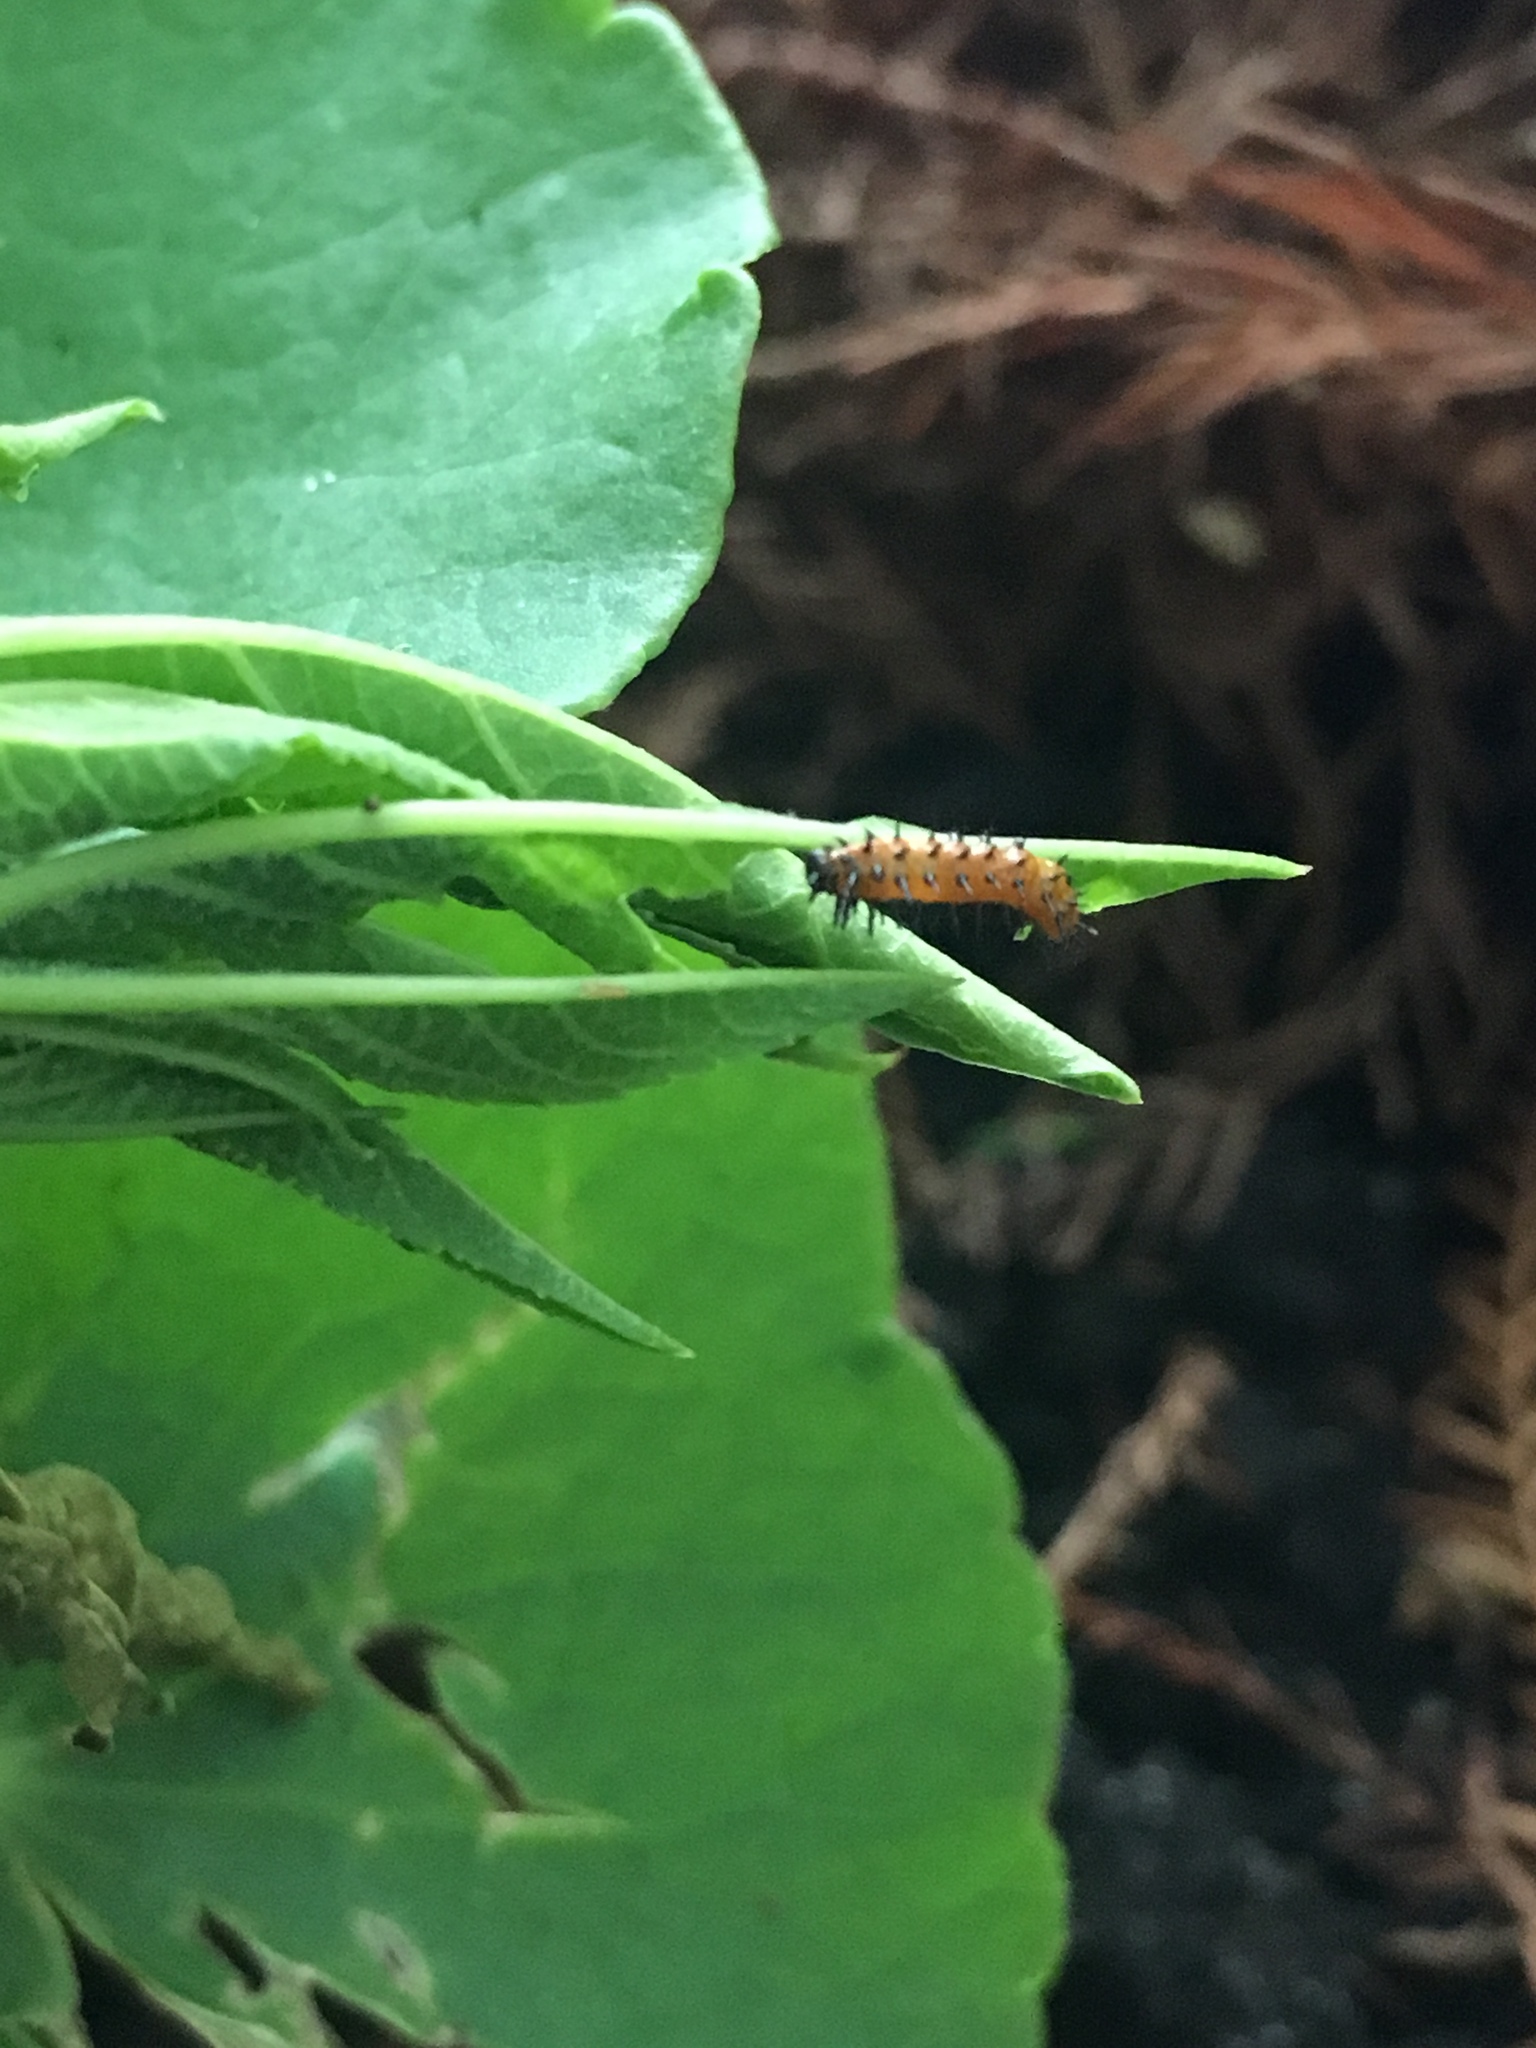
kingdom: Animalia
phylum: Arthropoda
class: Insecta
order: Lepidoptera
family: Nymphalidae
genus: Dione
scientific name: Dione vanillae
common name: Gulf fritillary
